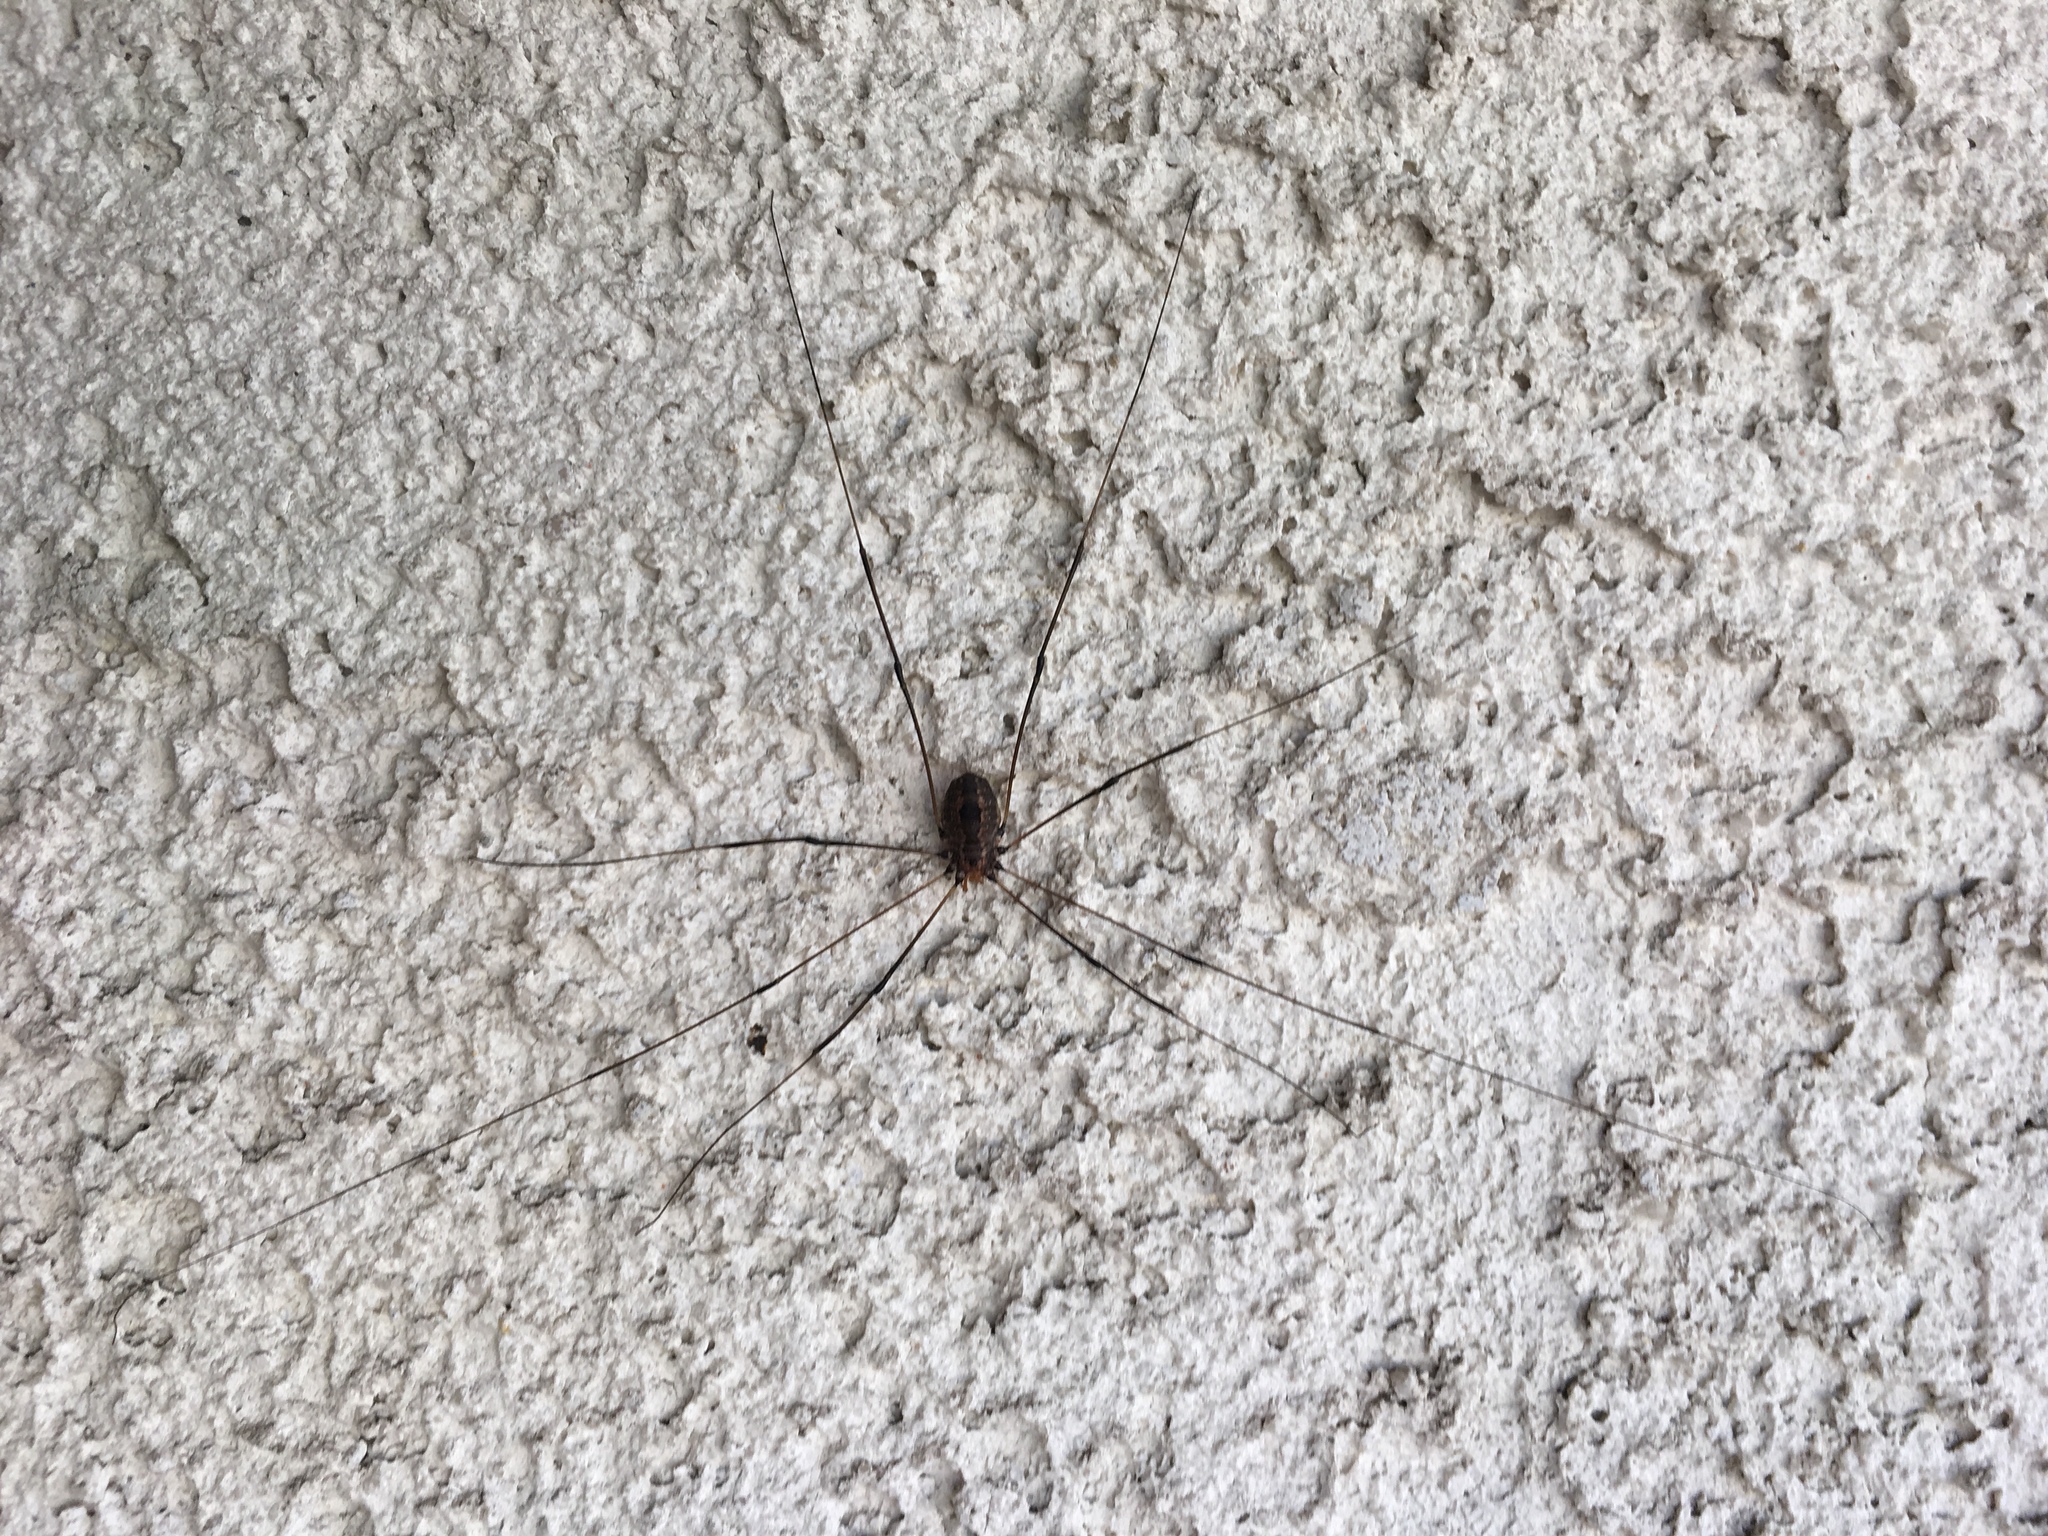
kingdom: Animalia
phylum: Arthropoda
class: Arachnida
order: Opiliones
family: Sclerosomatidae
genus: Leiobunum
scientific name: Leiobunum vittatum
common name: Eastern harvestman
